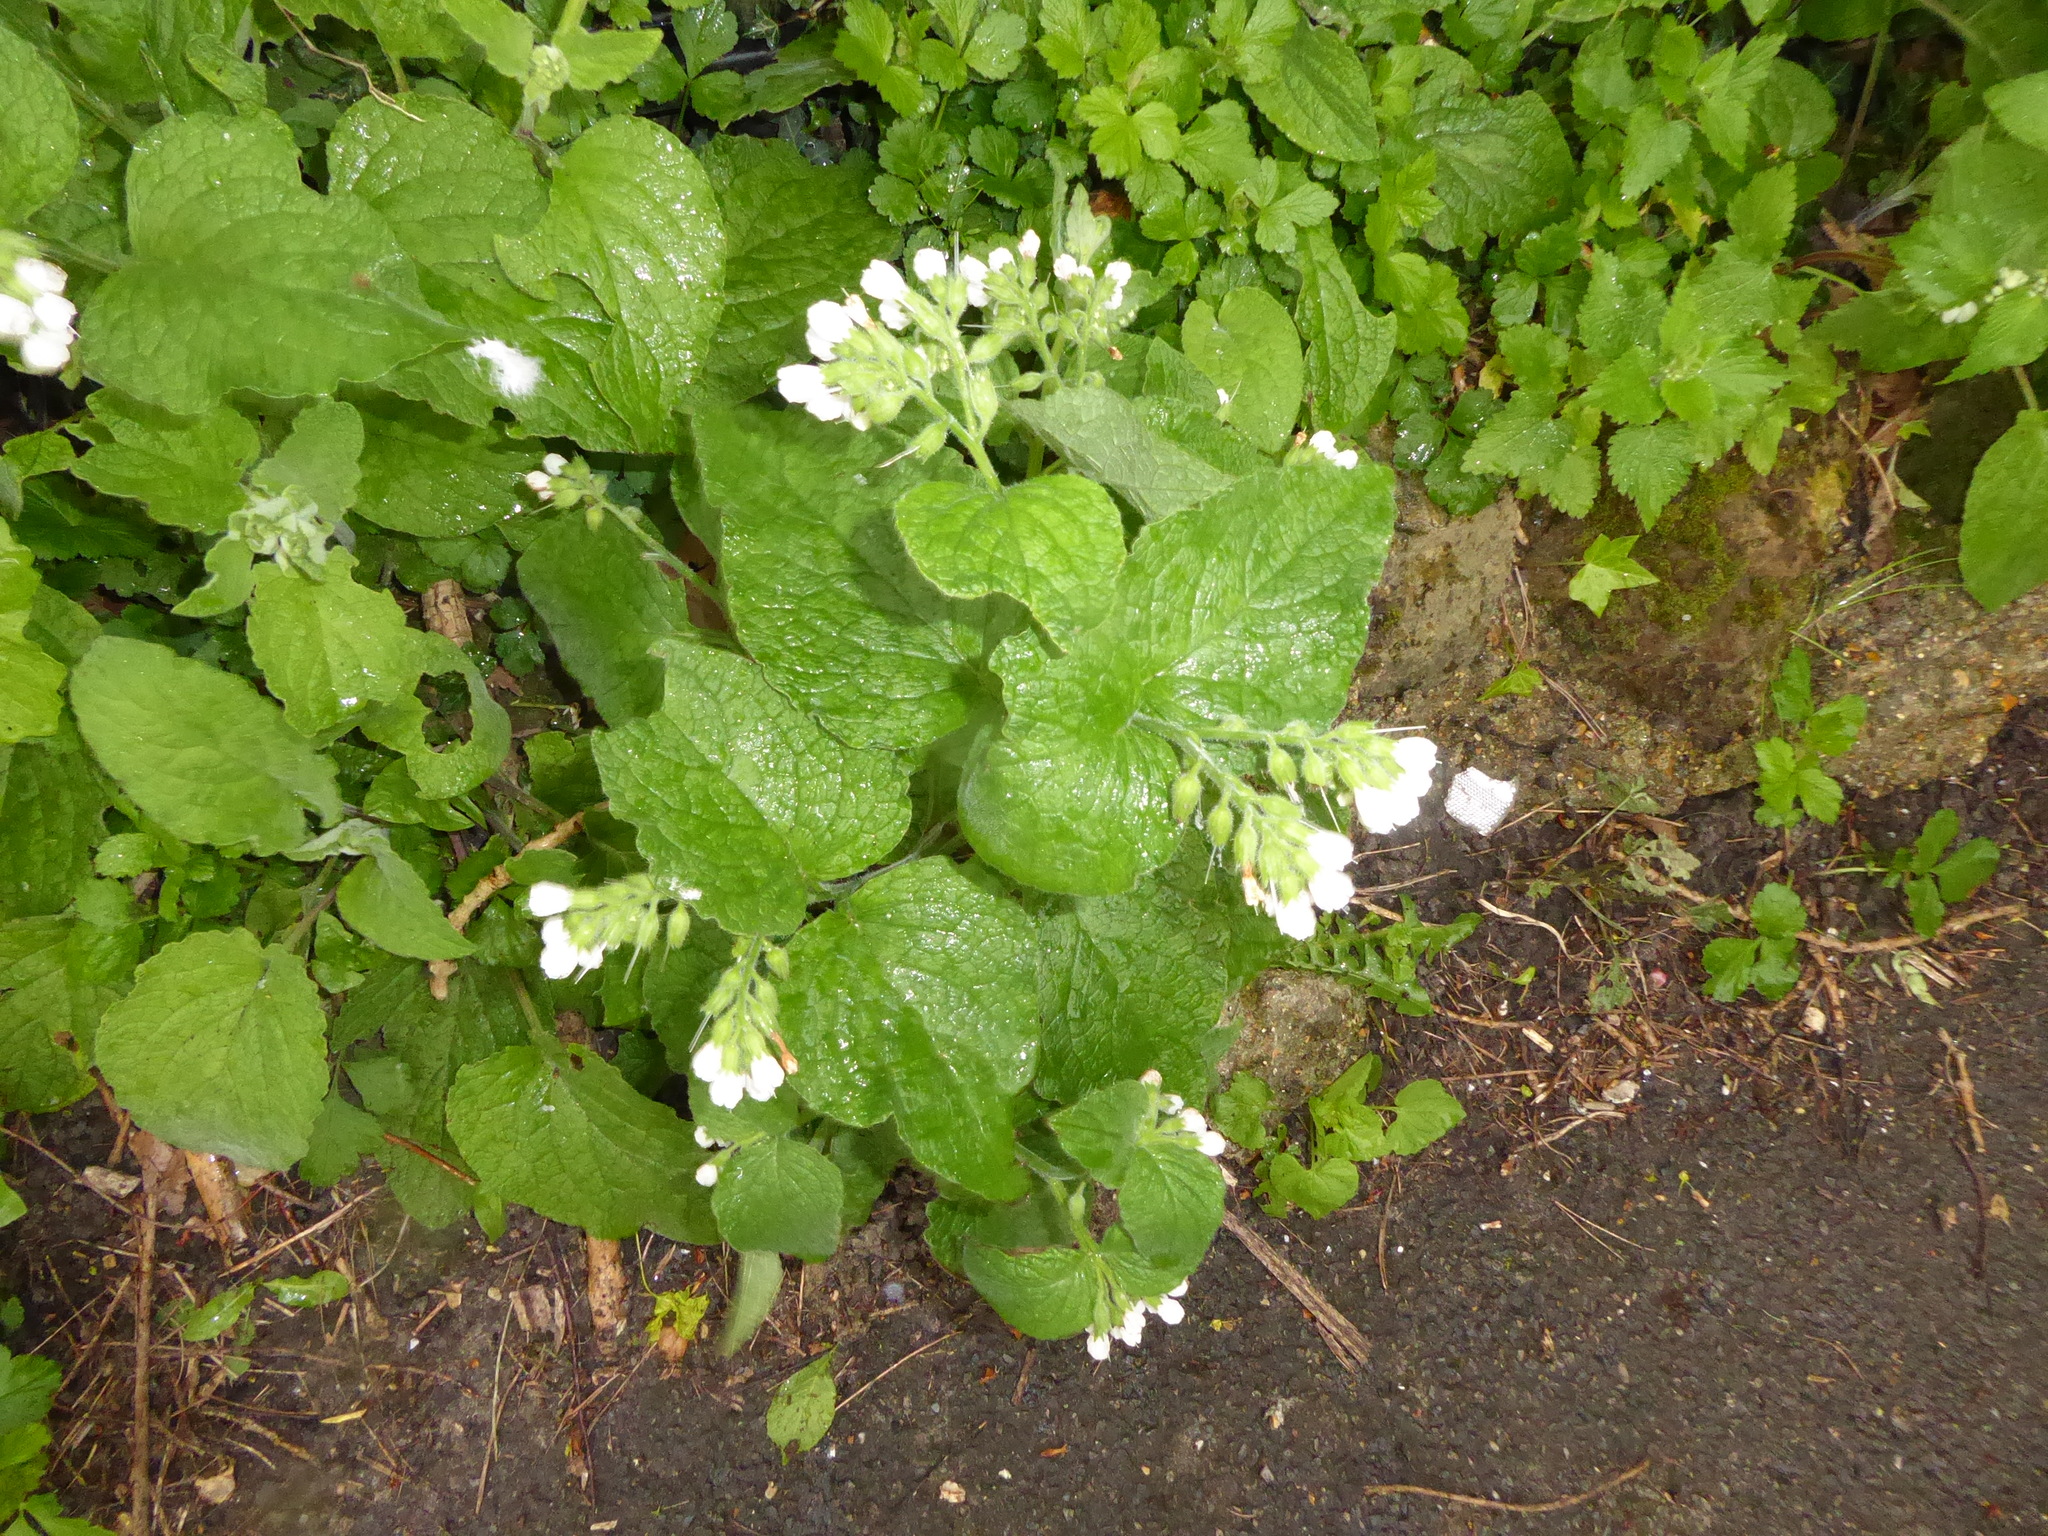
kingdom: Plantae
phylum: Tracheophyta
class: Magnoliopsida
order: Boraginales
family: Boraginaceae
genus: Symphytum
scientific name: Symphytum orientale
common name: White comfrey
